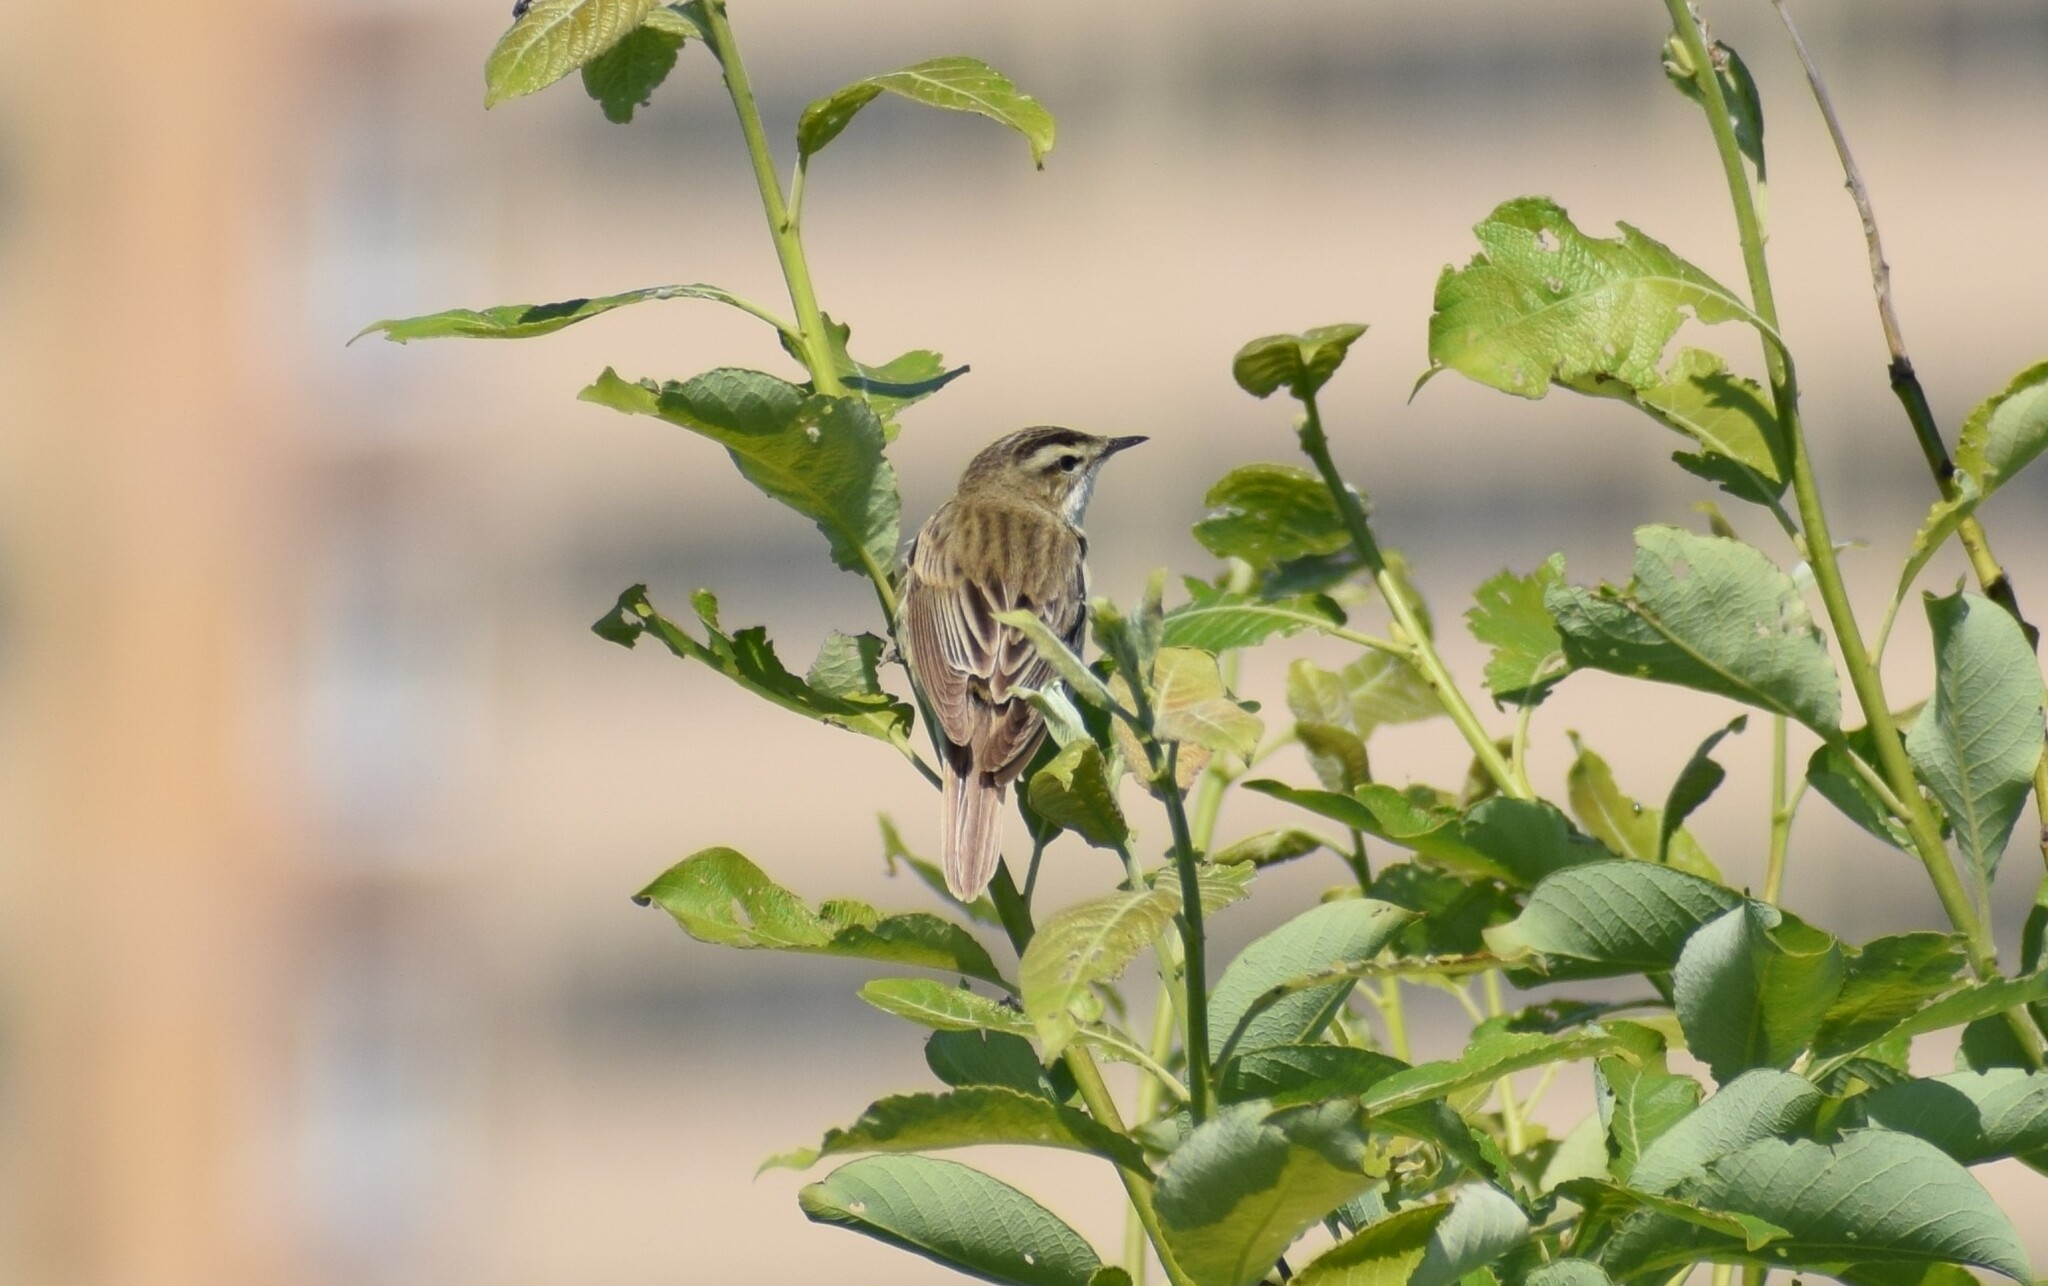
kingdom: Animalia
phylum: Chordata
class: Aves
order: Passeriformes
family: Acrocephalidae
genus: Acrocephalus
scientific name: Acrocephalus schoenobaenus
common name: Sedge warbler
